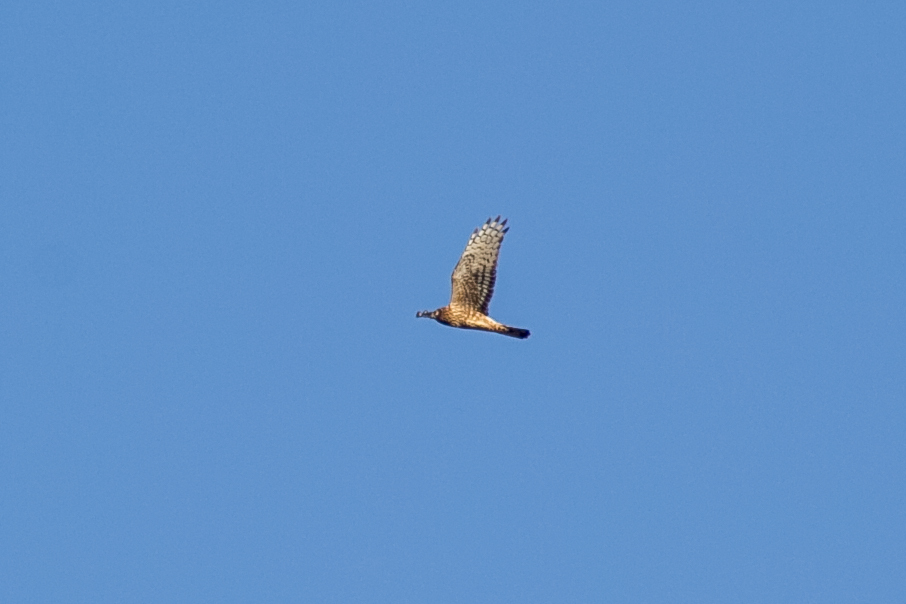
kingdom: Animalia
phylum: Chordata
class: Aves
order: Accipitriformes
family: Accipitridae
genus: Circus
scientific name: Circus cyaneus
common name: Hen harrier
